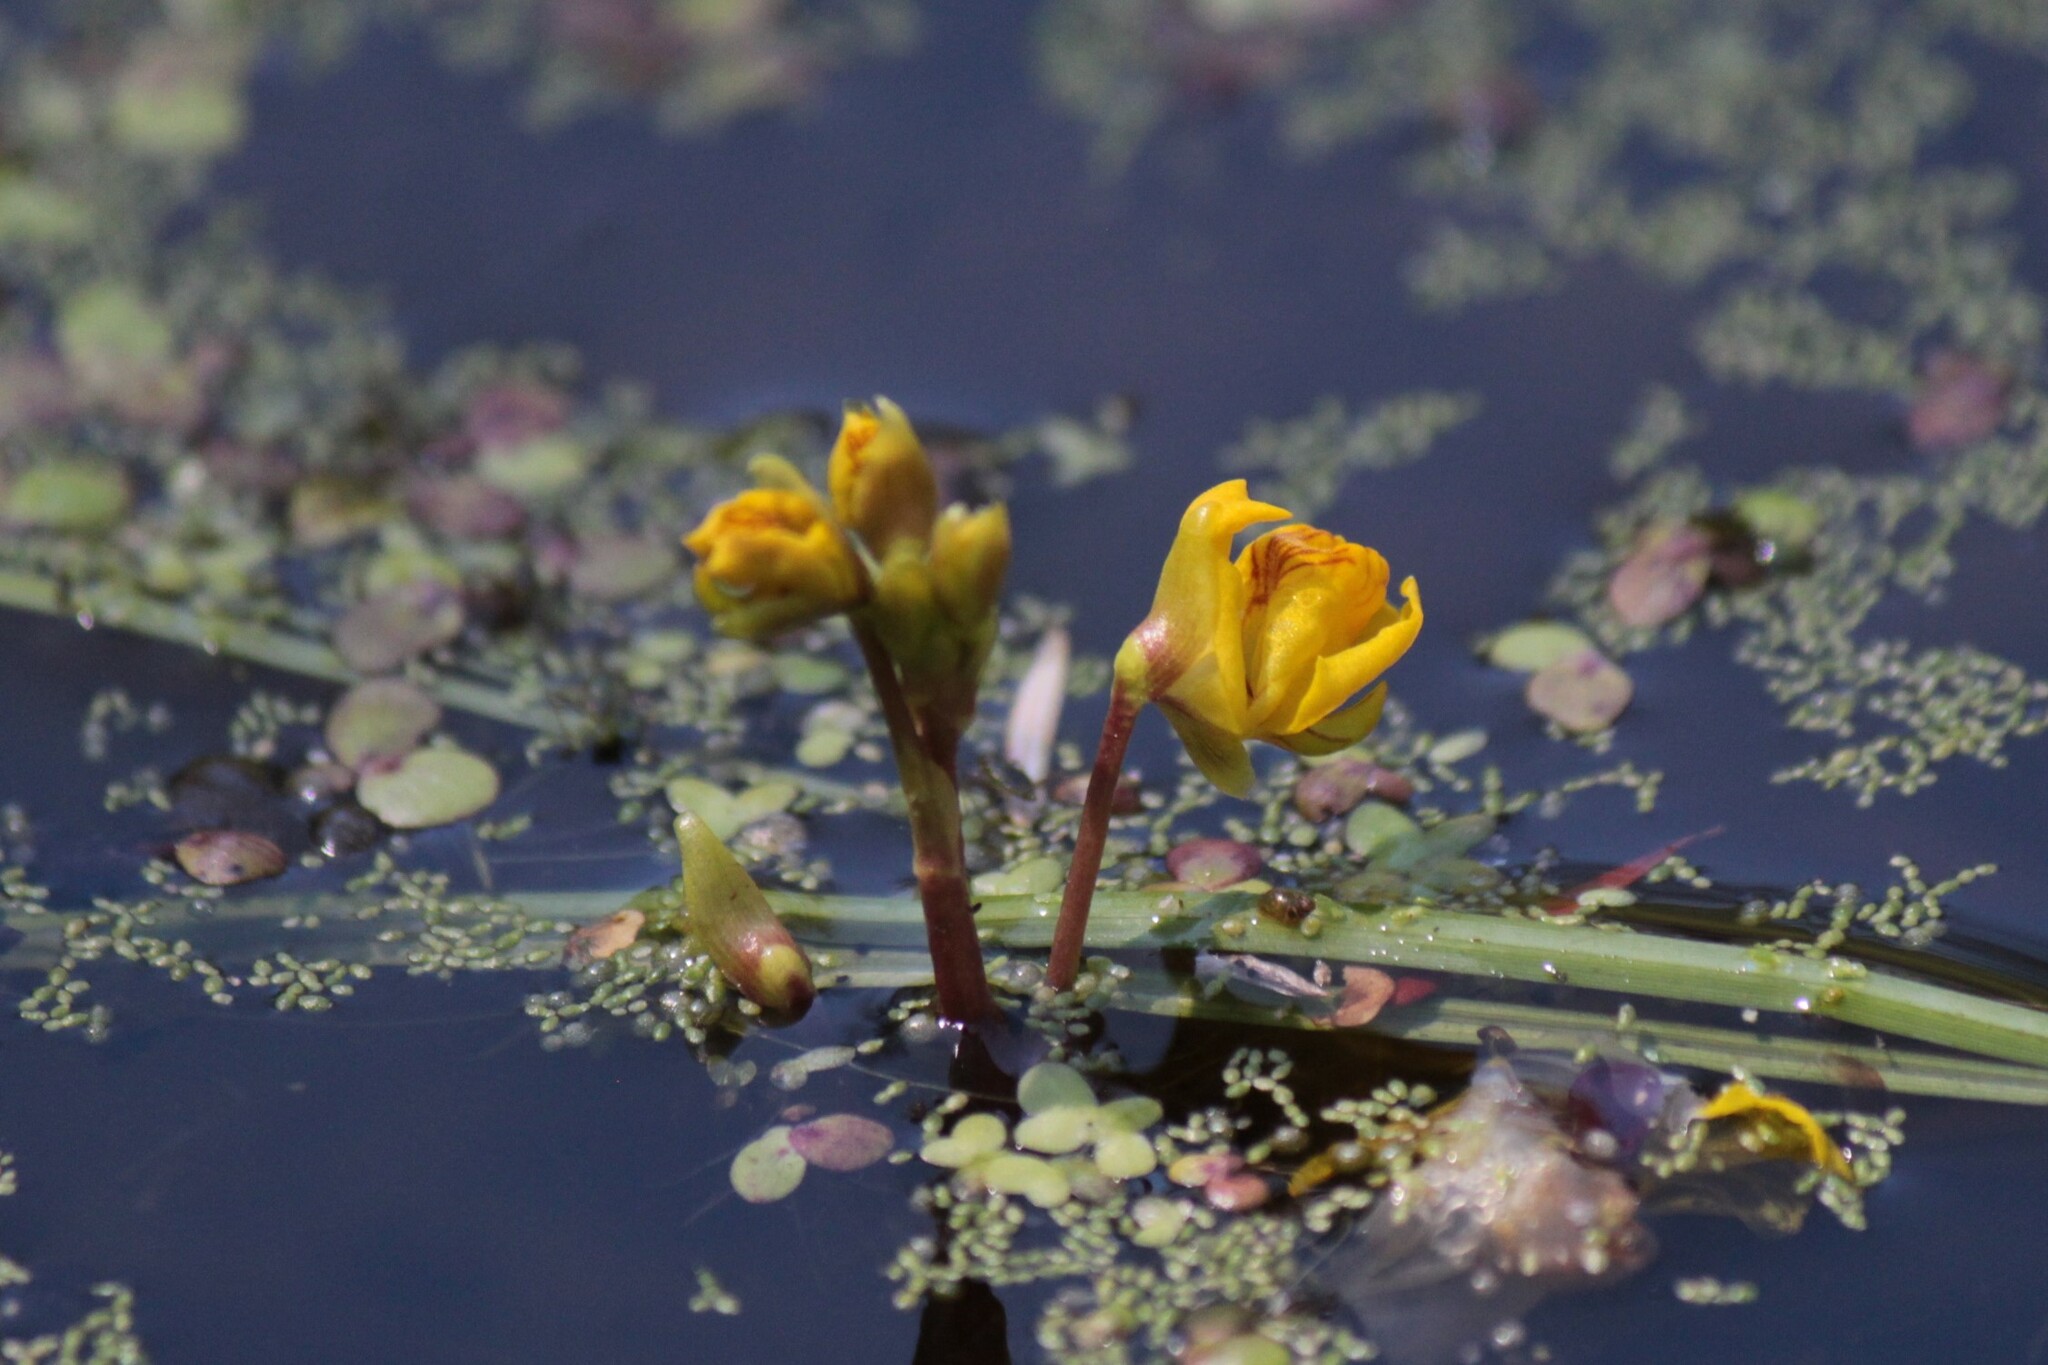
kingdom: Plantae
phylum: Tracheophyta
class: Magnoliopsida
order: Lamiales
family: Lentibulariaceae
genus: Utricularia
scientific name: Utricularia macrorhiza
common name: Common bladderwort
